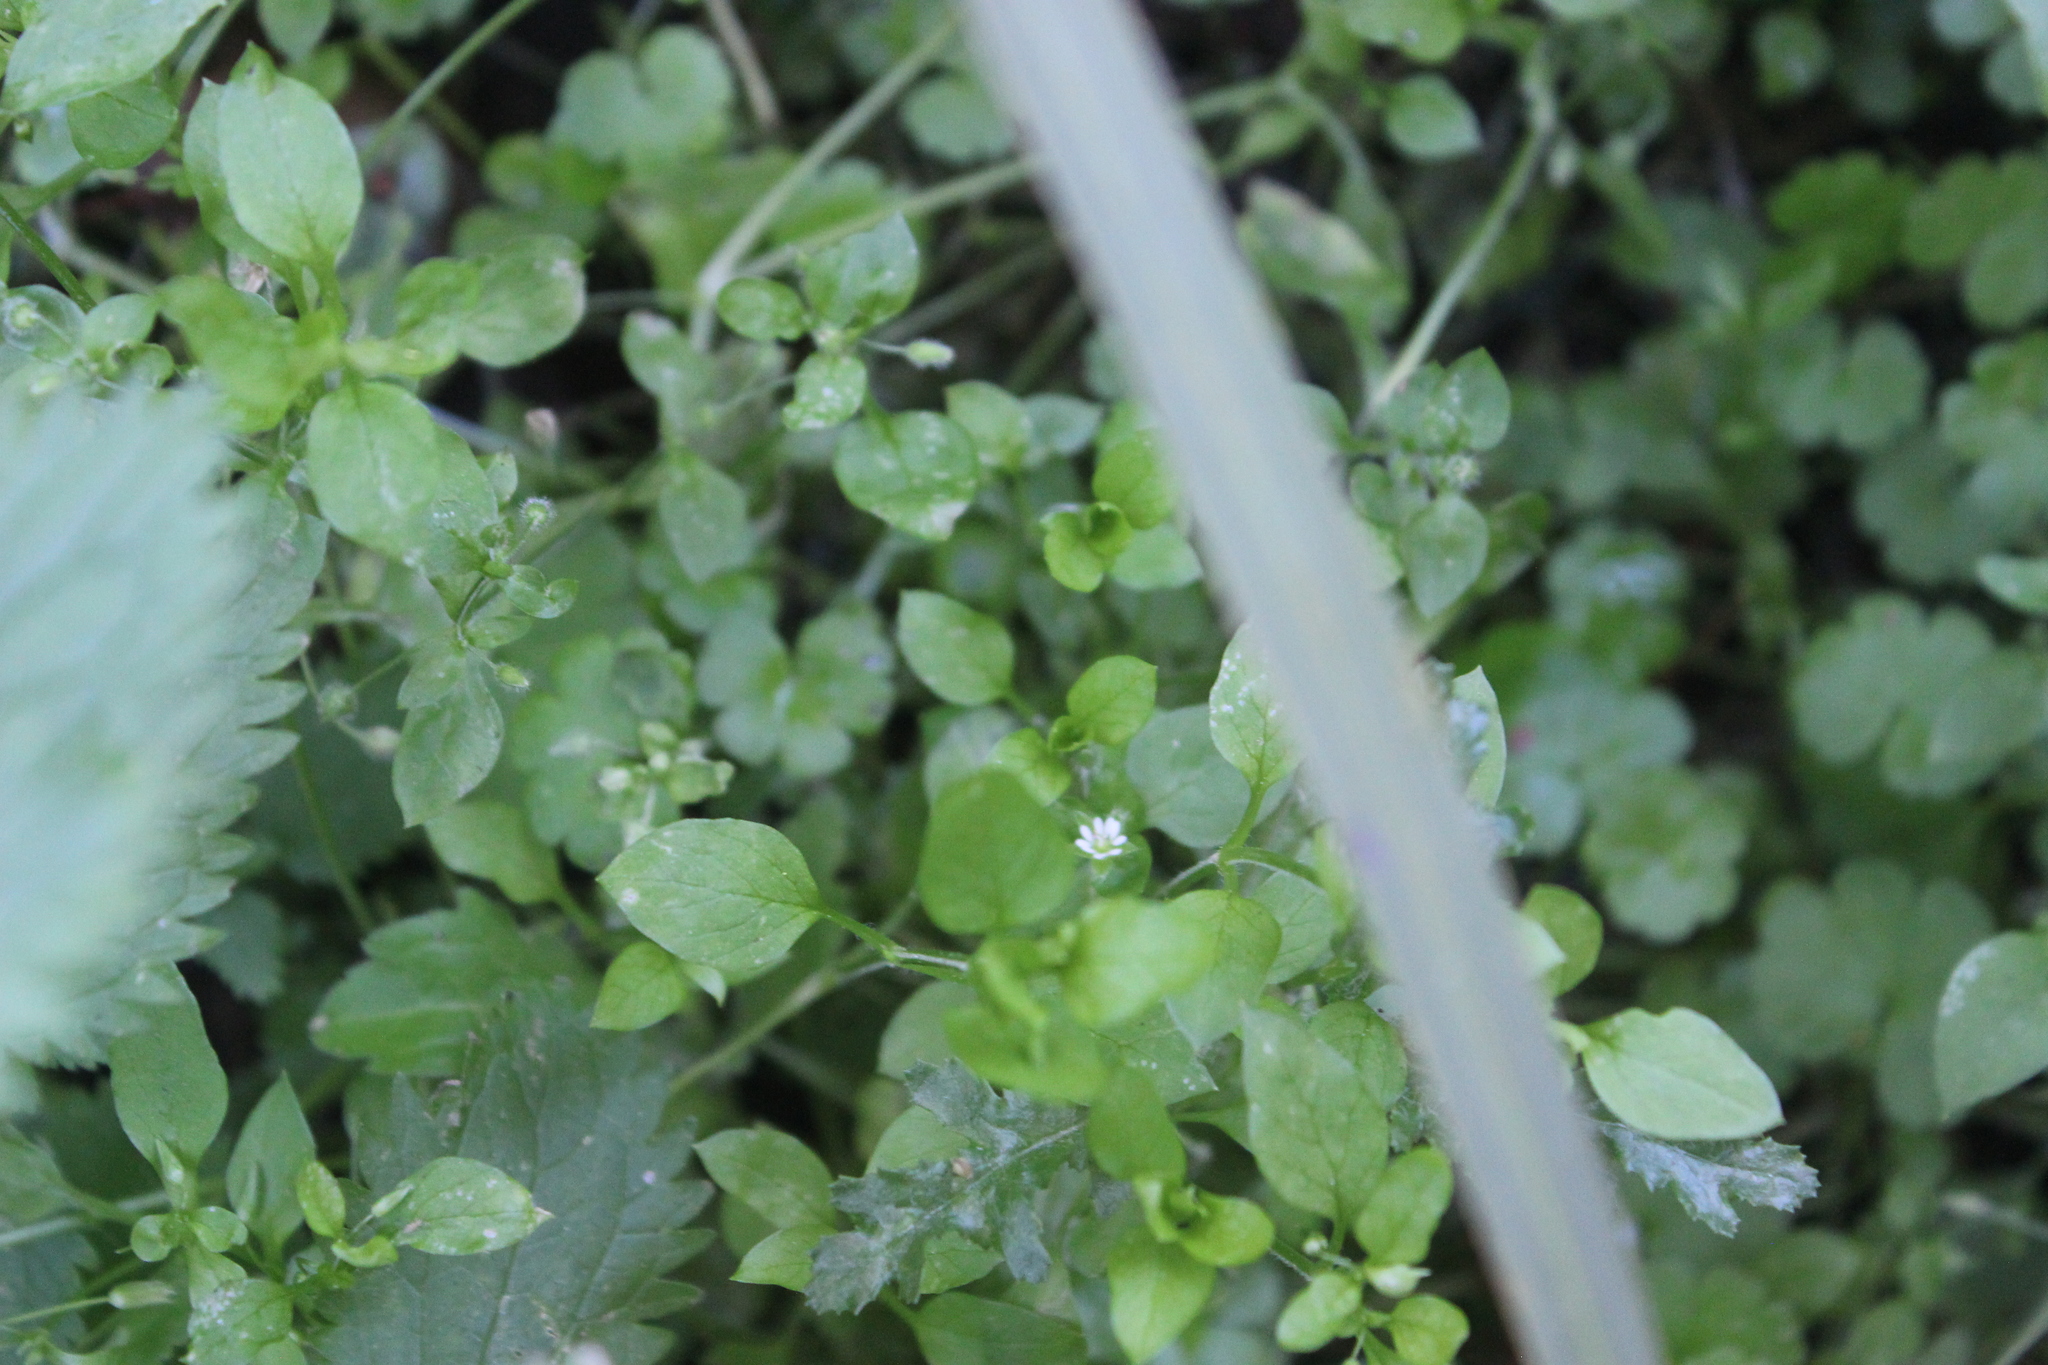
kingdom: Plantae
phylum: Tracheophyta
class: Magnoliopsida
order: Caryophyllales
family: Caryophyllaceae
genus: Stellaria
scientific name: Stellaria media
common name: Common chickweed
